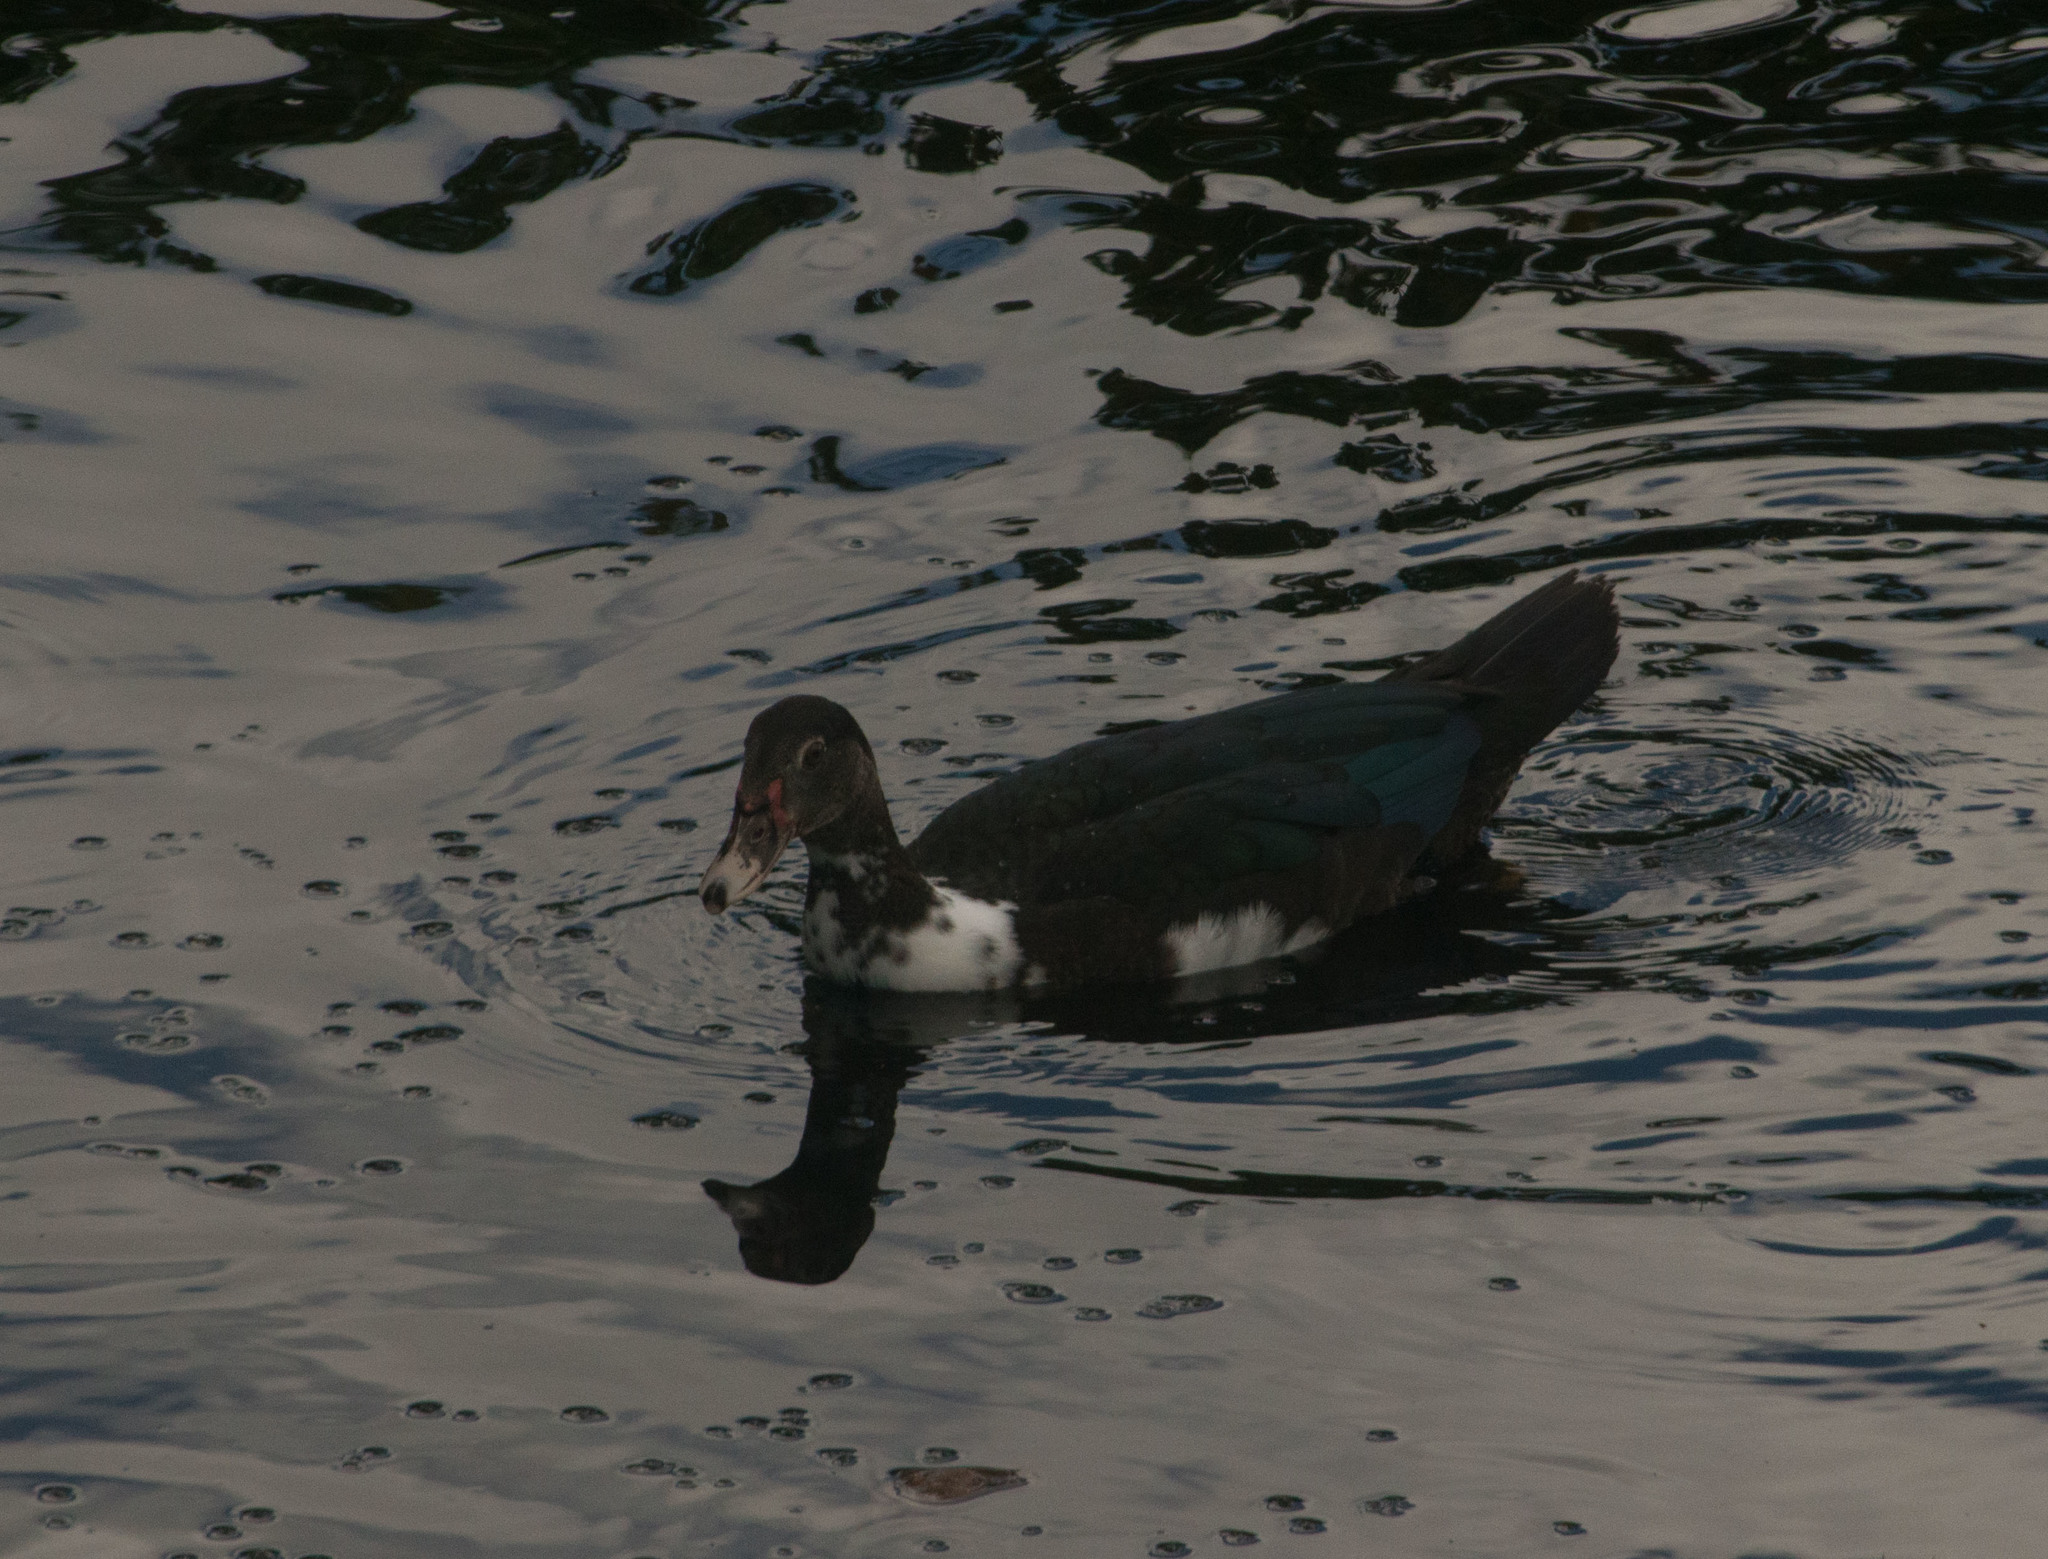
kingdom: Animalia
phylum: Chordata
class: Aves
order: Anseriformes
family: Anatidae
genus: Cairina
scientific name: Cairina moschata
